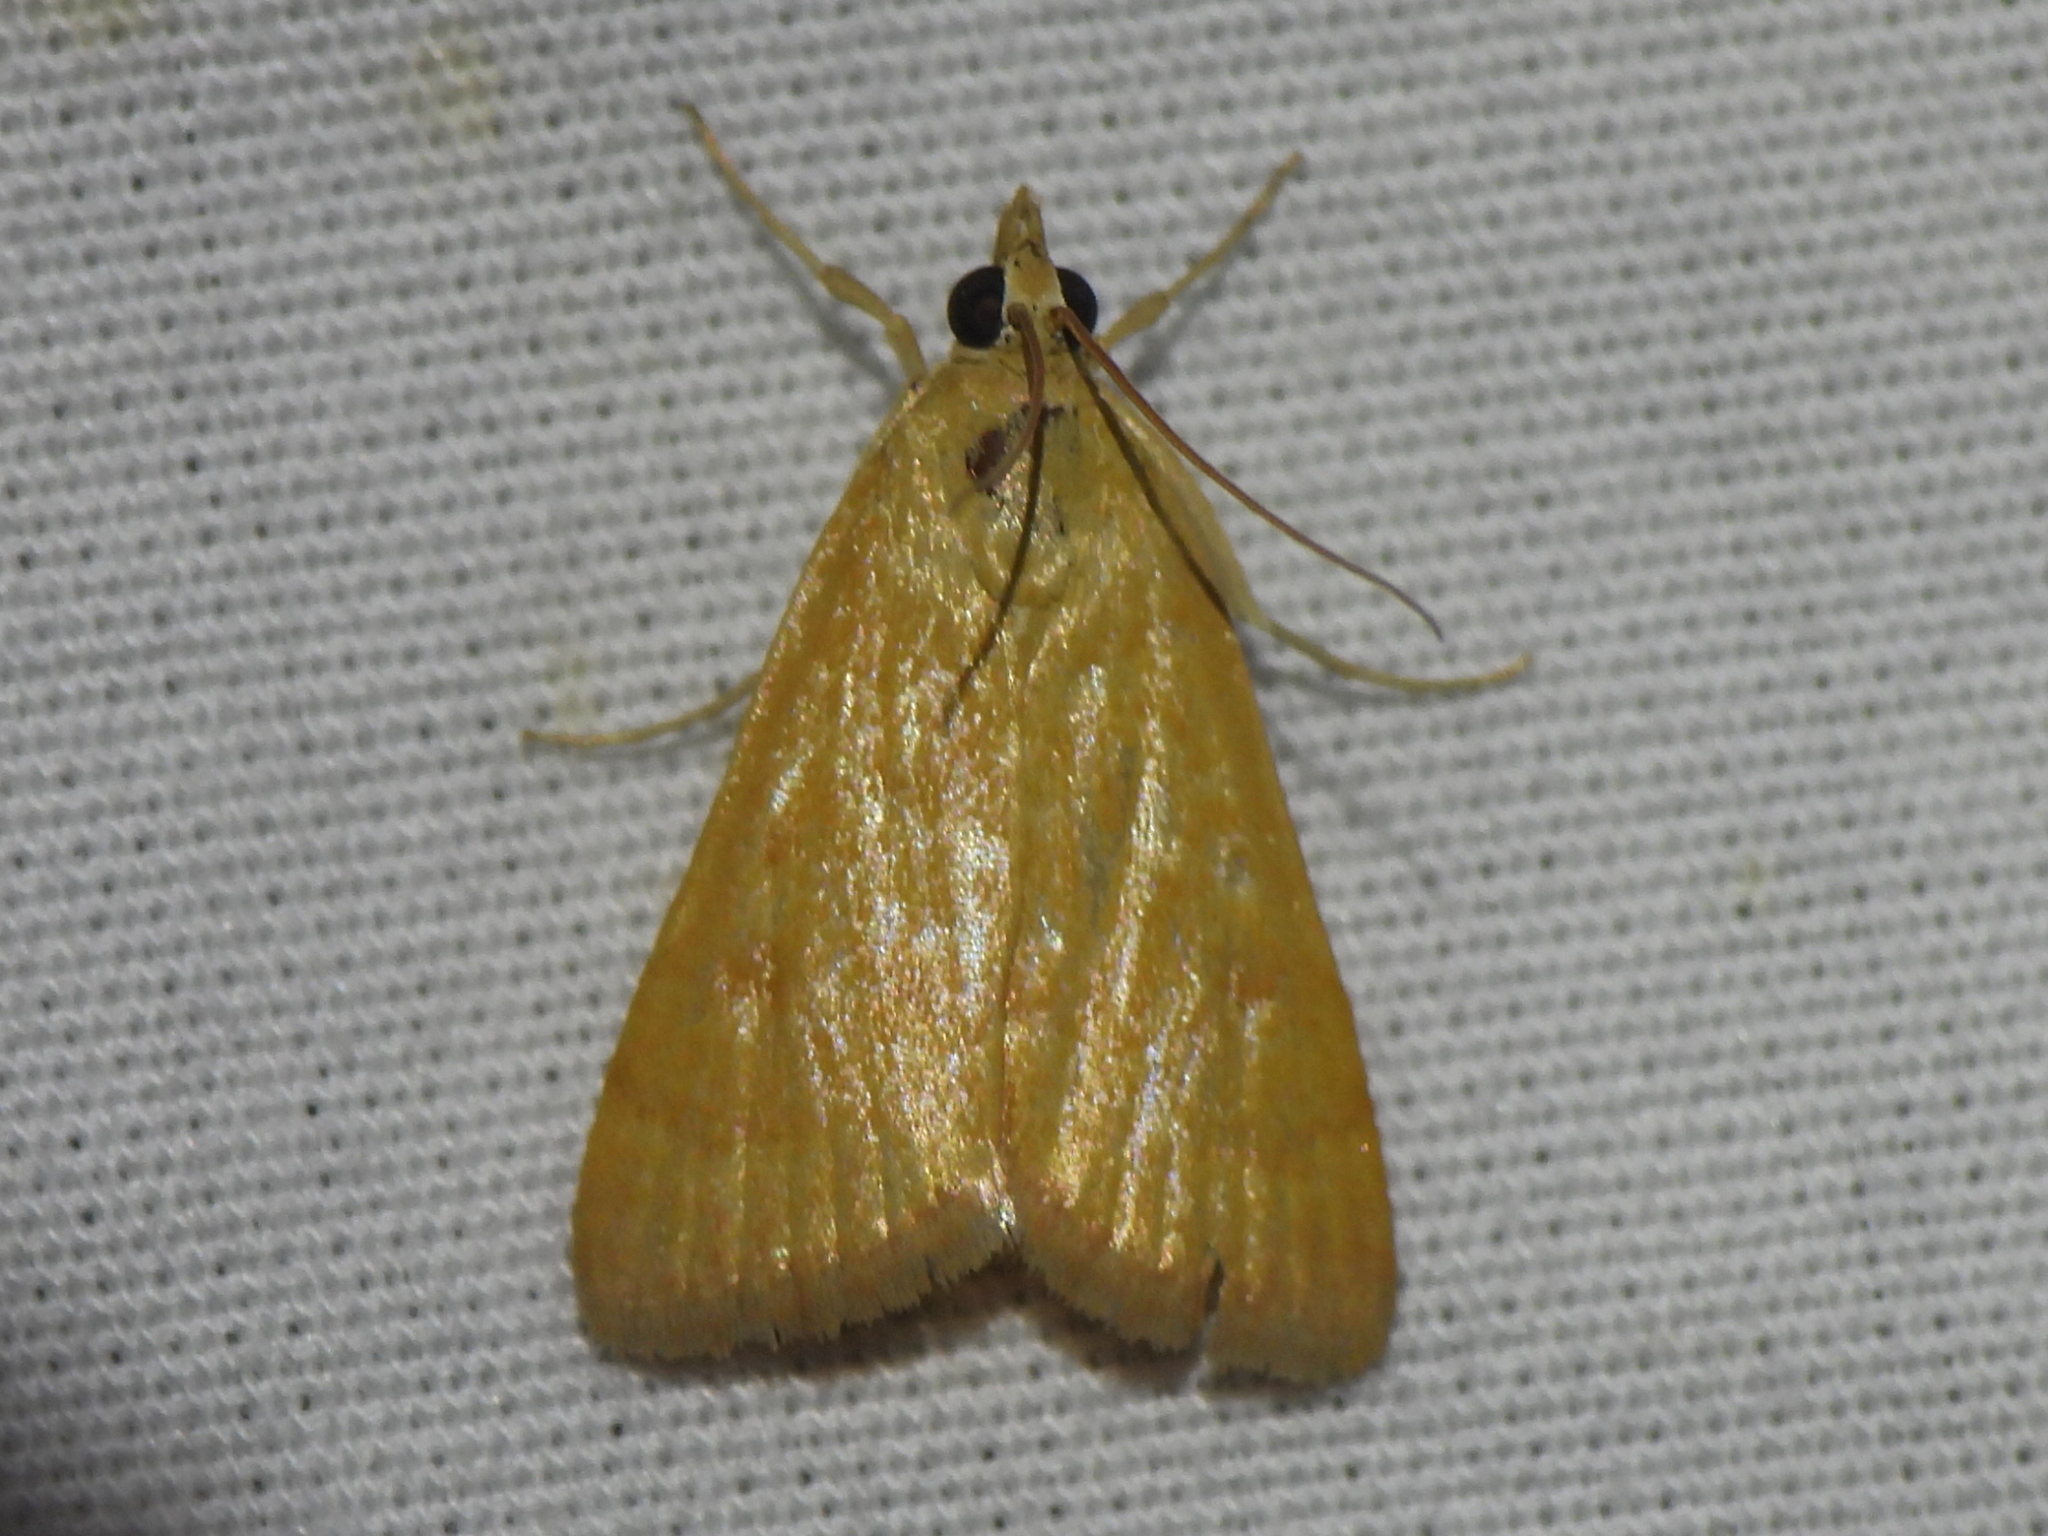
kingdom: Animalia
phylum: Arthropoda
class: Insecta
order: Lepidoptera
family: Crambidae
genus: Achyra
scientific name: Achyra rantalis
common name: Garden webworm
